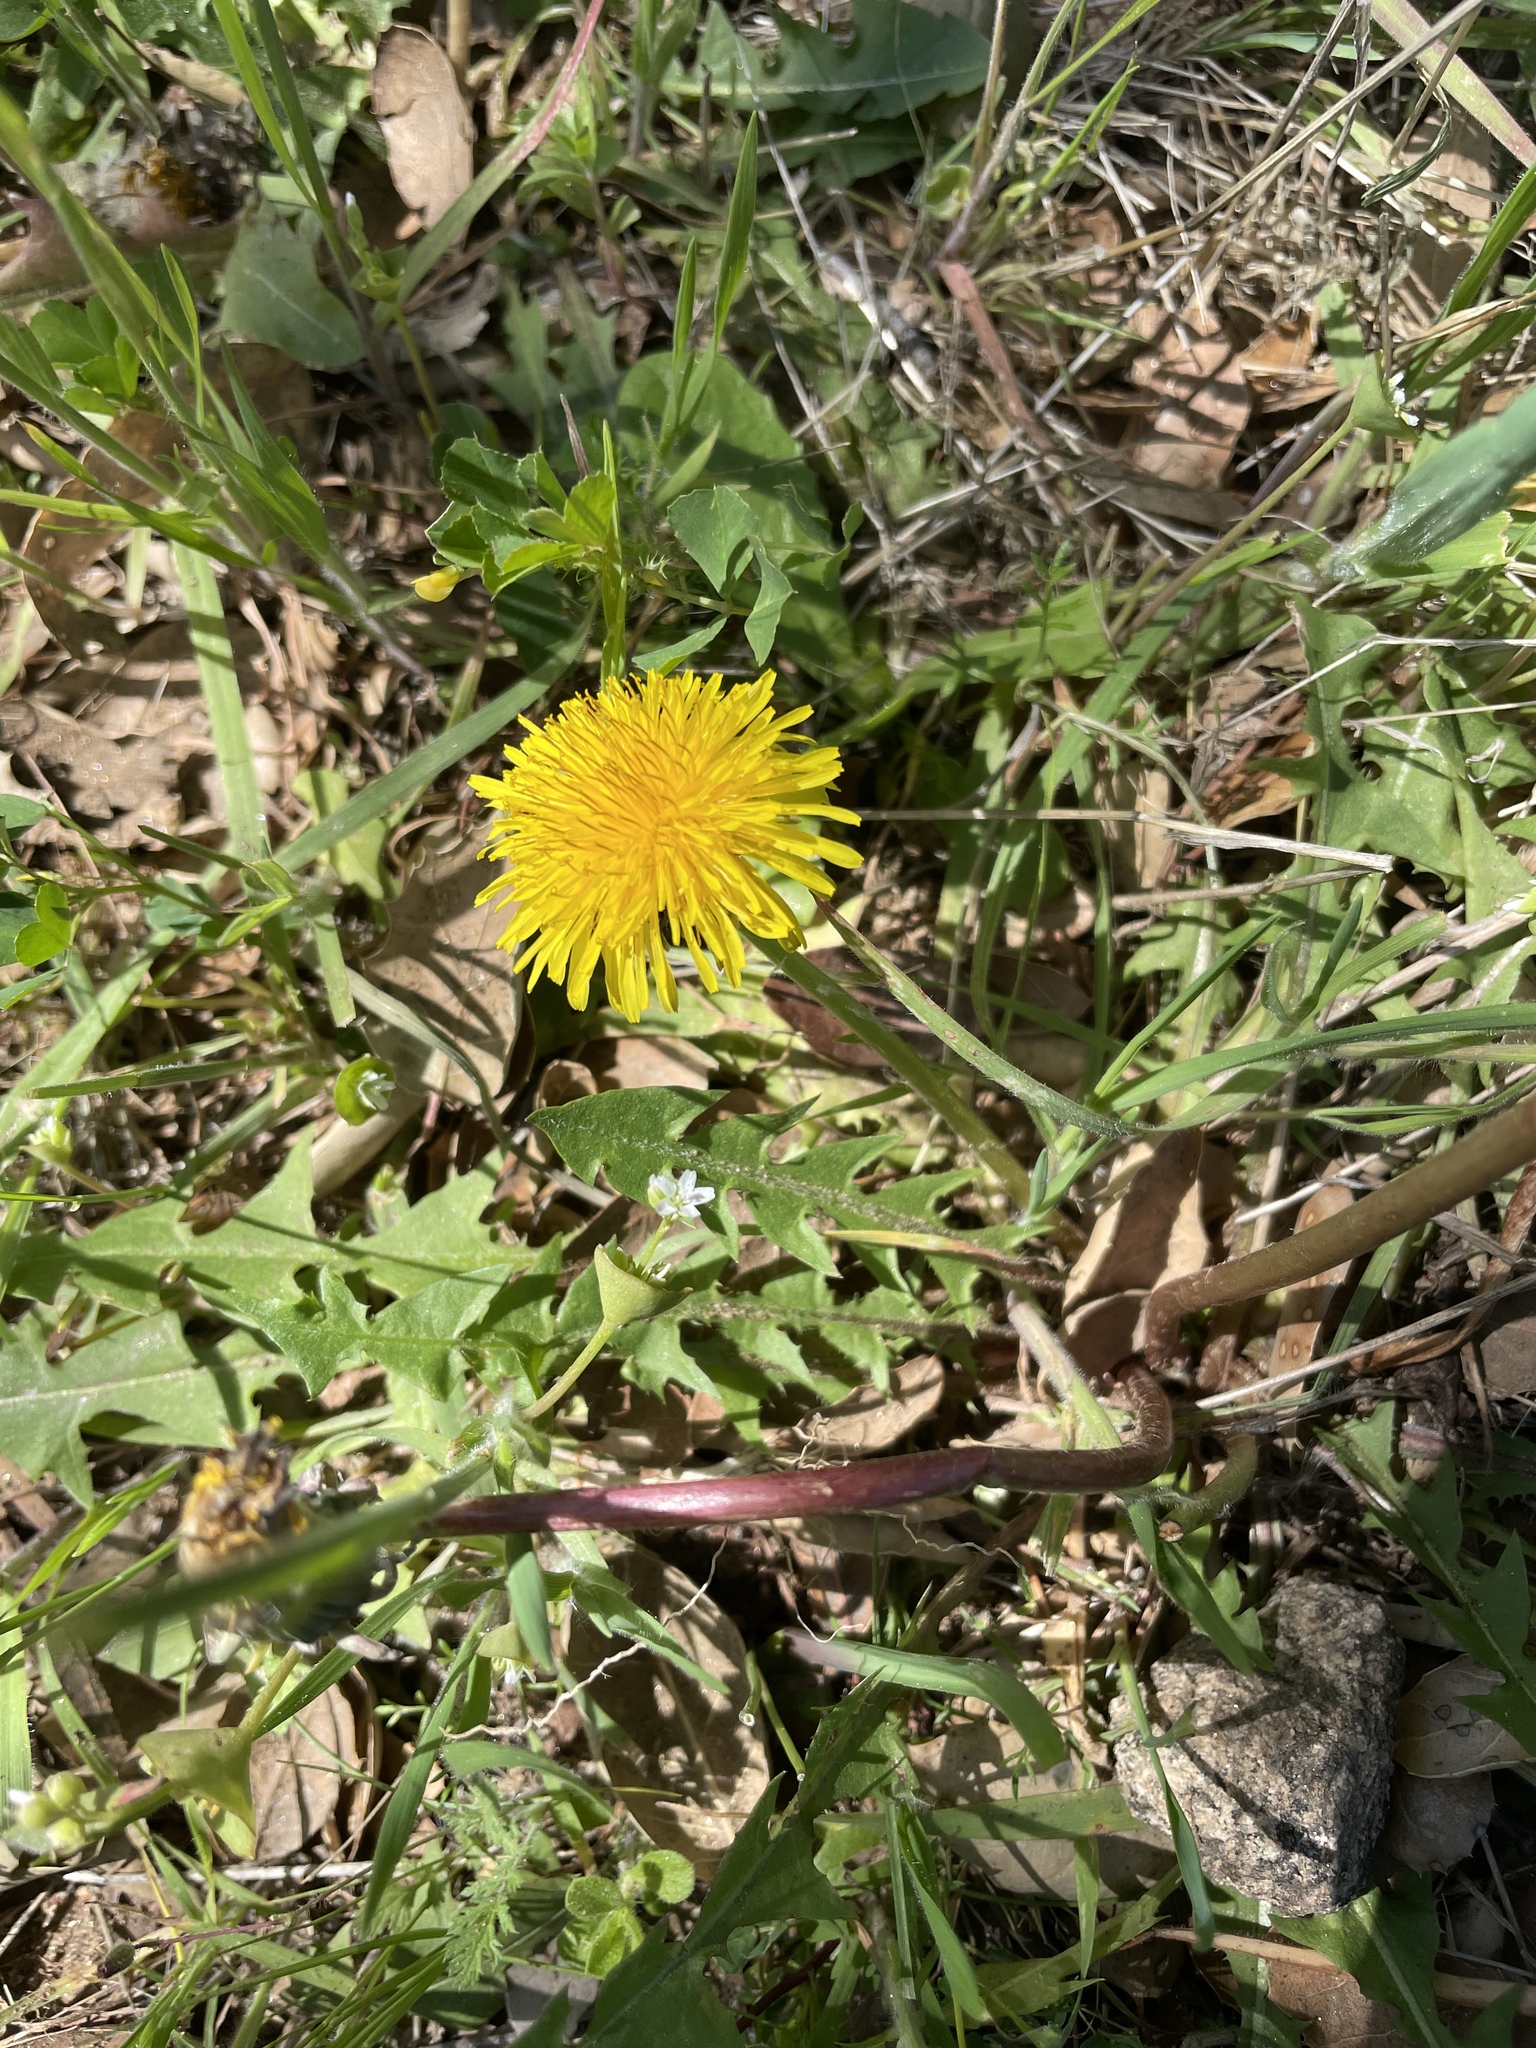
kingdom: Plantae
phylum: Tracheophyta
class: Magnoliopsida
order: Asterales
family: Asteraceae
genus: Taraxacum
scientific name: Taraxacum officinale
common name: Common dandelion
